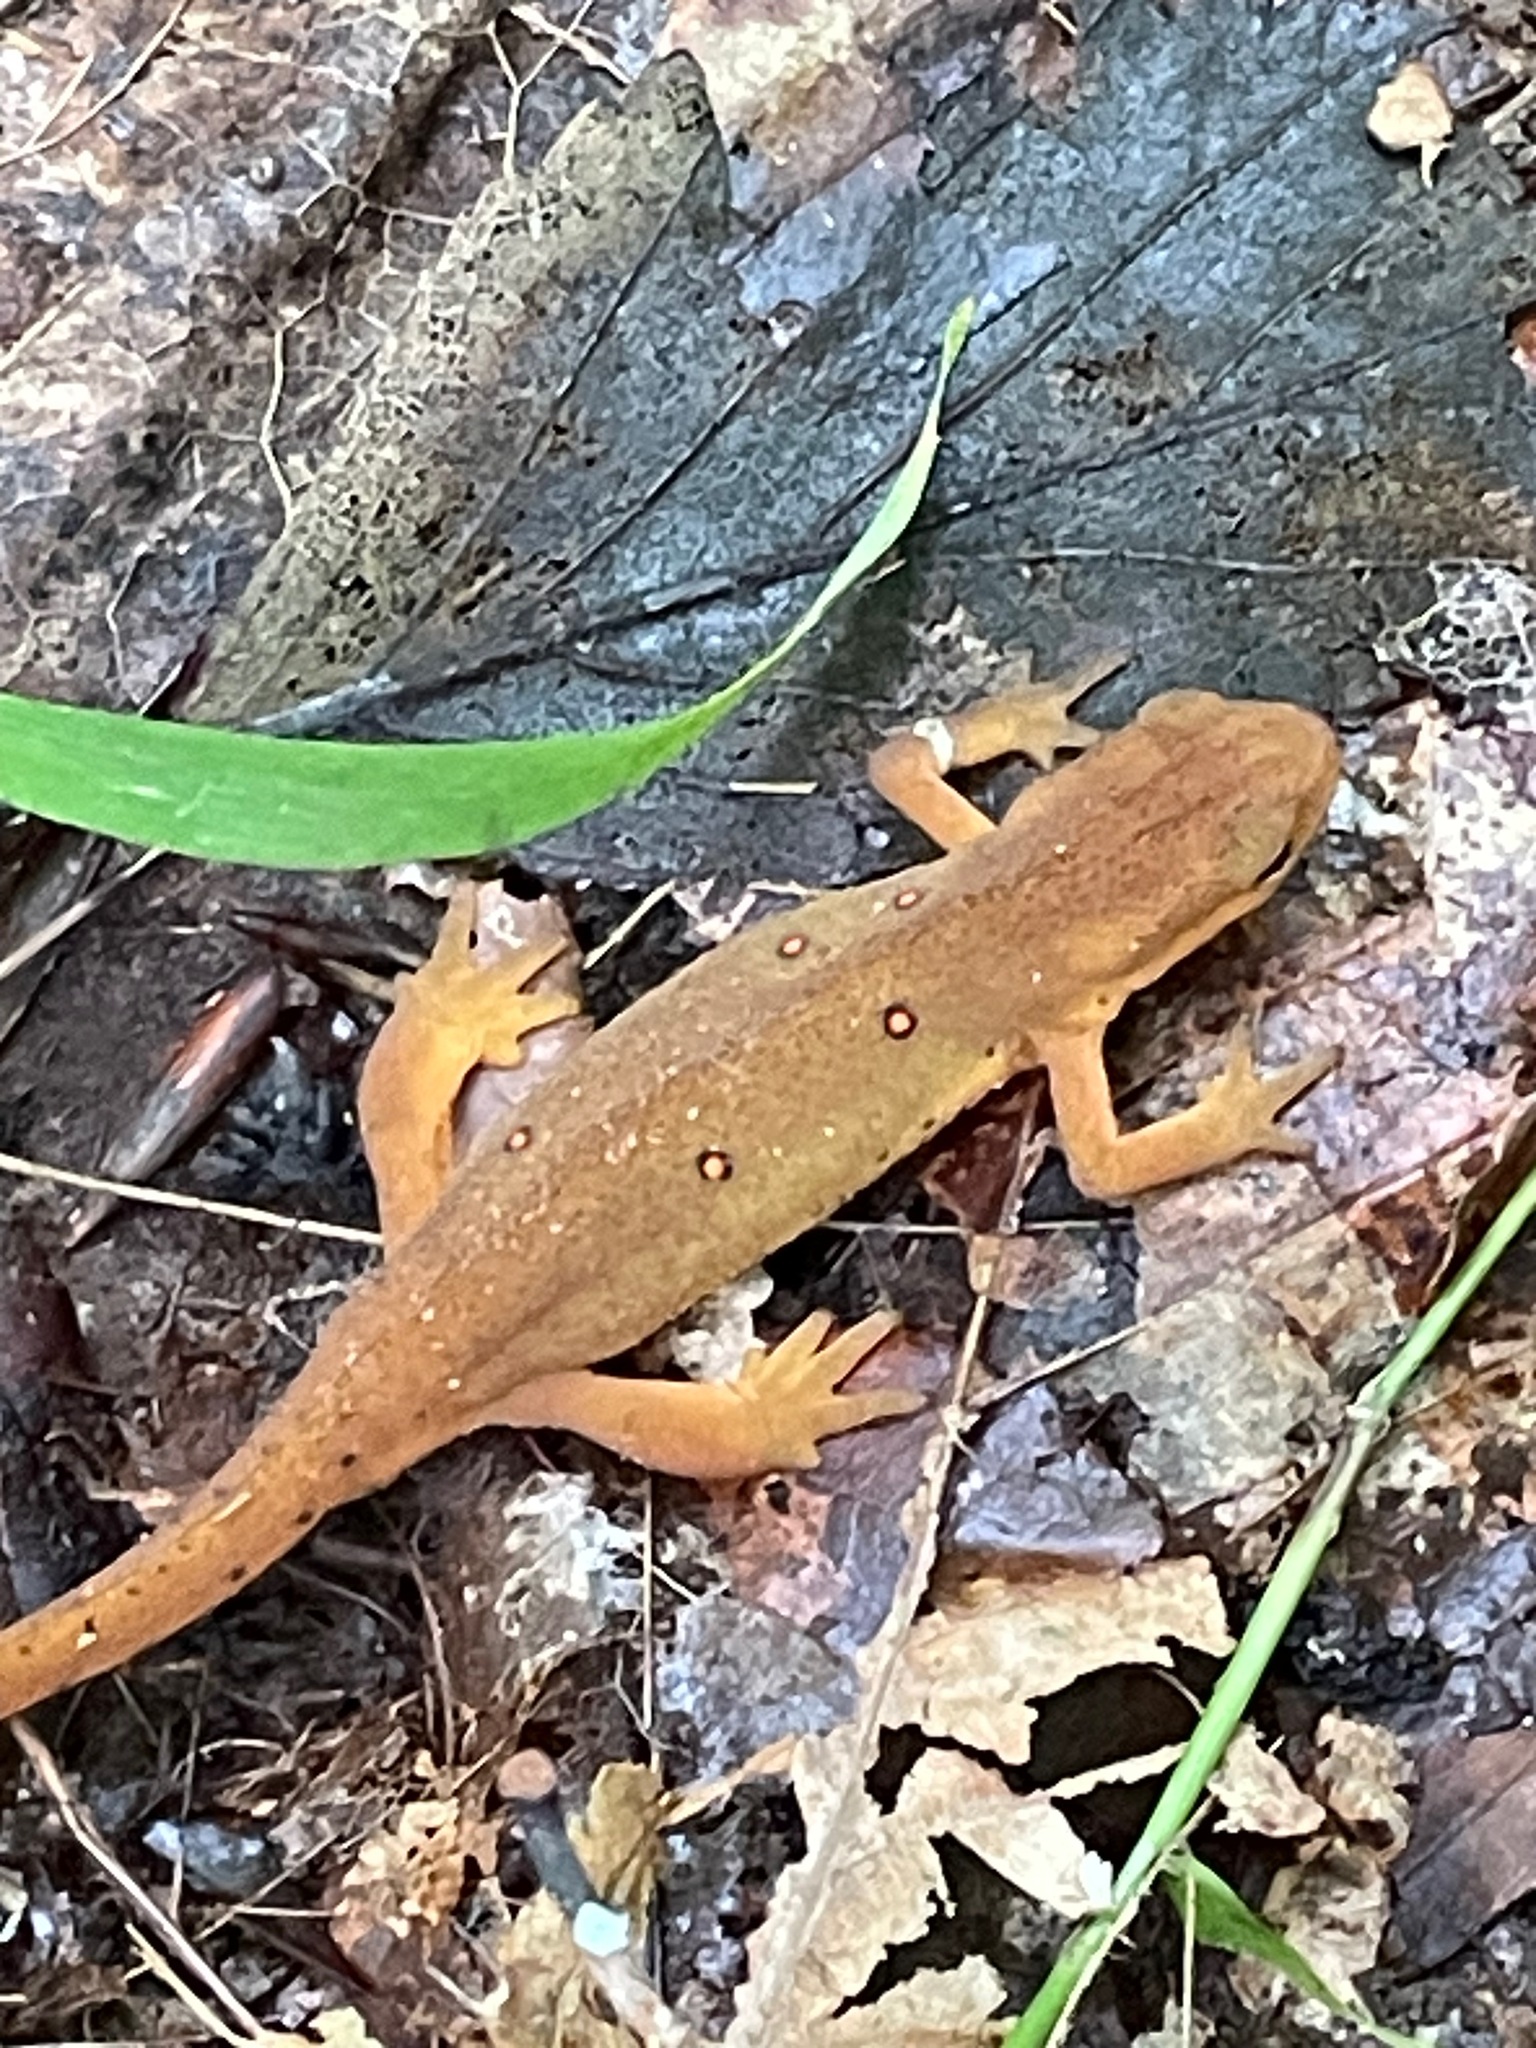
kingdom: Animalia
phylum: Chordata
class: Amphibia
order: Caudata
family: Salamandridae
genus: Notophthalmus
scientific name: Notophthalmus viridescens
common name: Eastern newt
